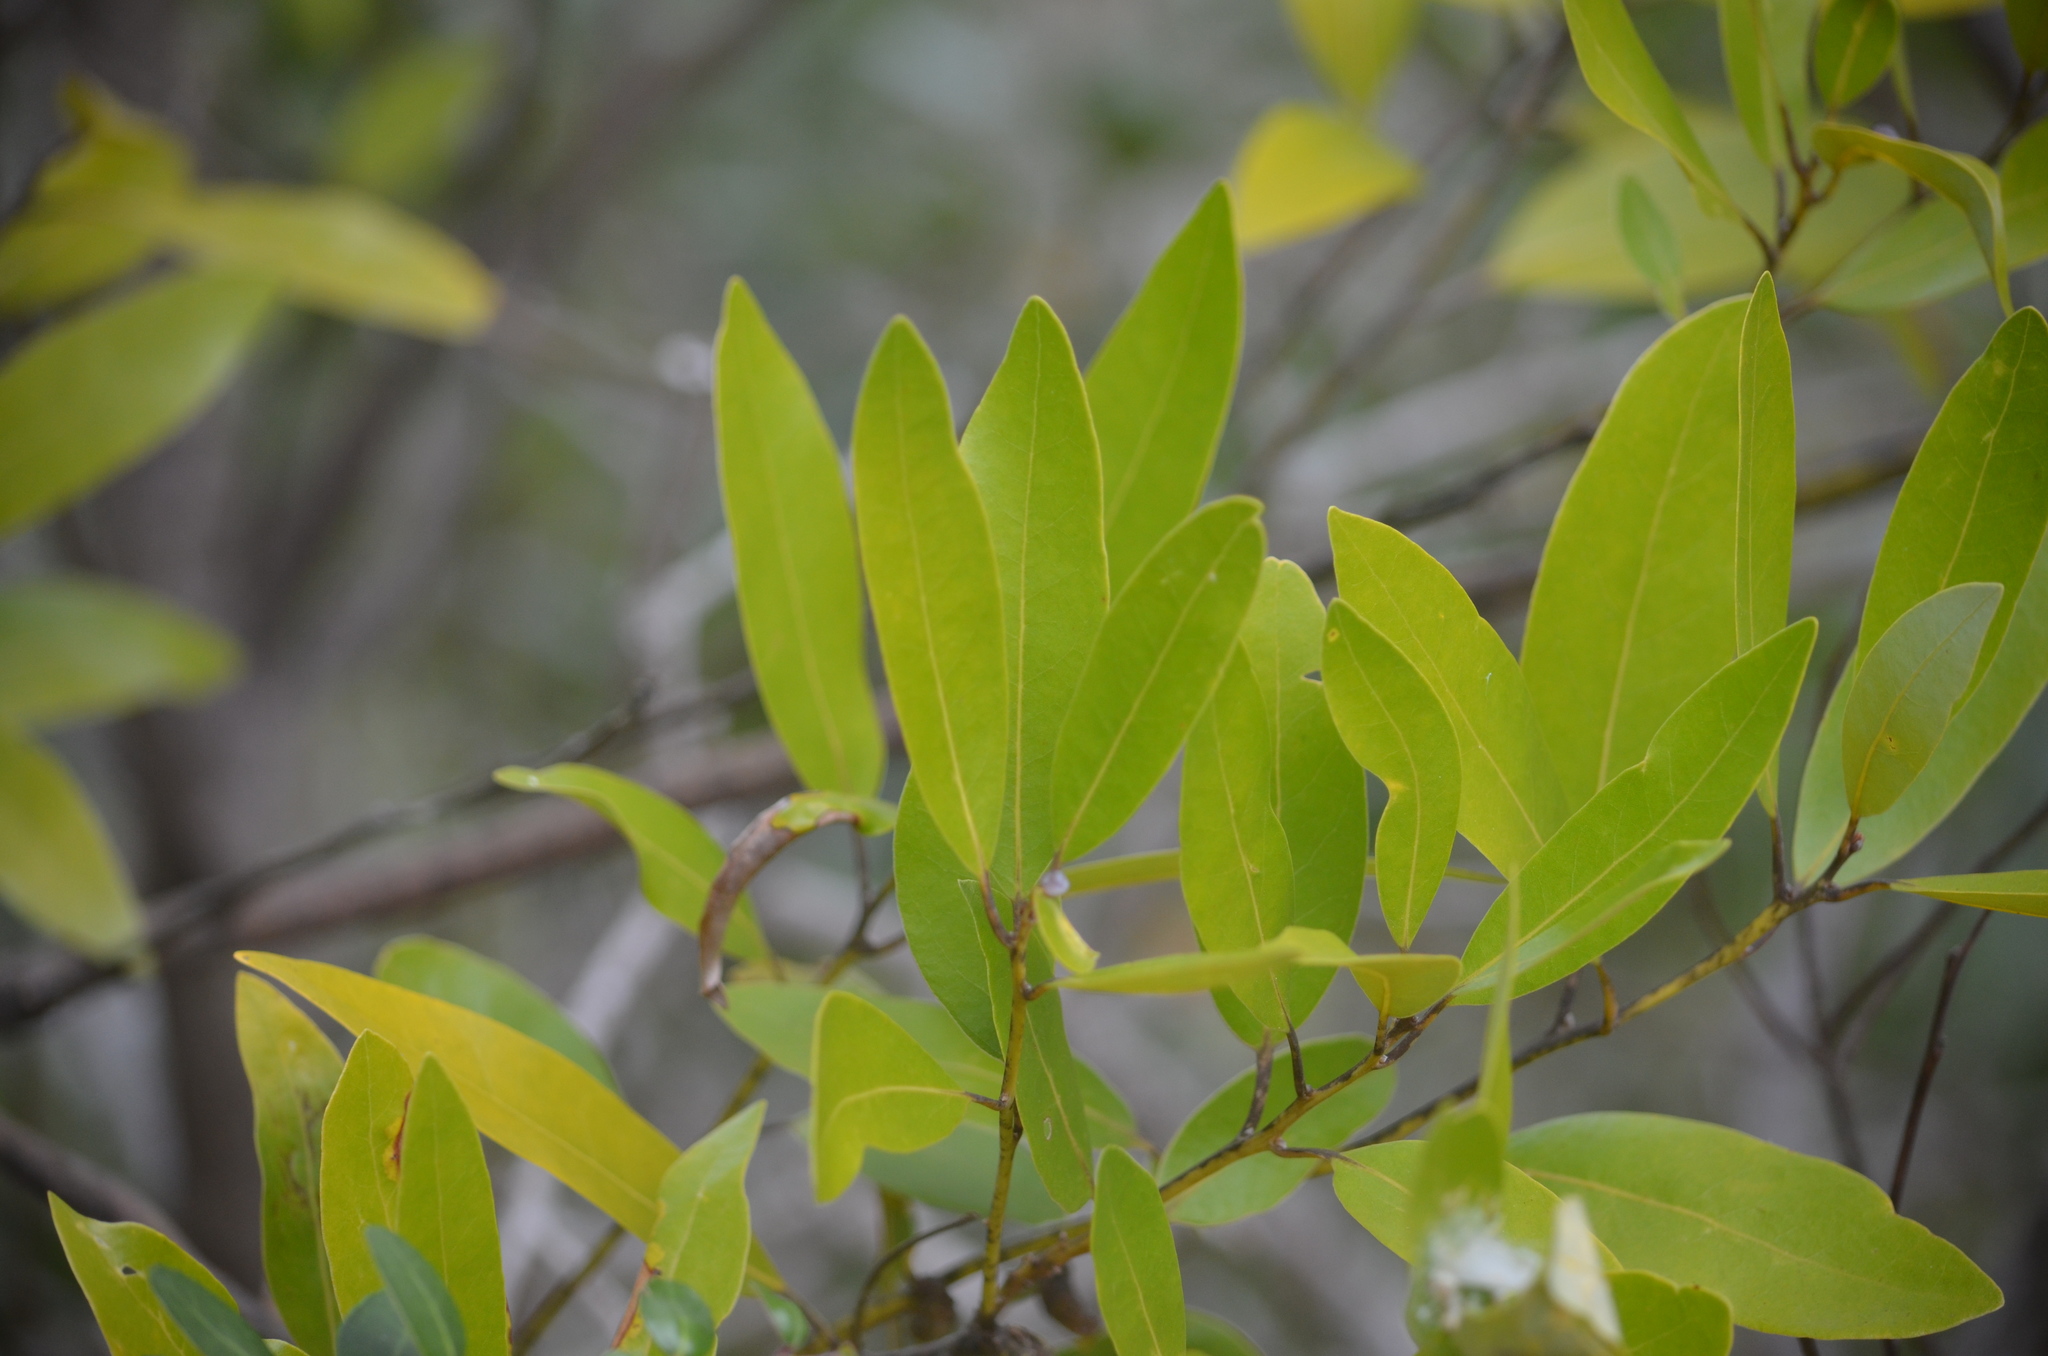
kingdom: Plantae
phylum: Tracheophyta
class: Magnoliopsida
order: Laurales
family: Lauraceae
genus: Persea
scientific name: Persea borbonia
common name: Redbay
